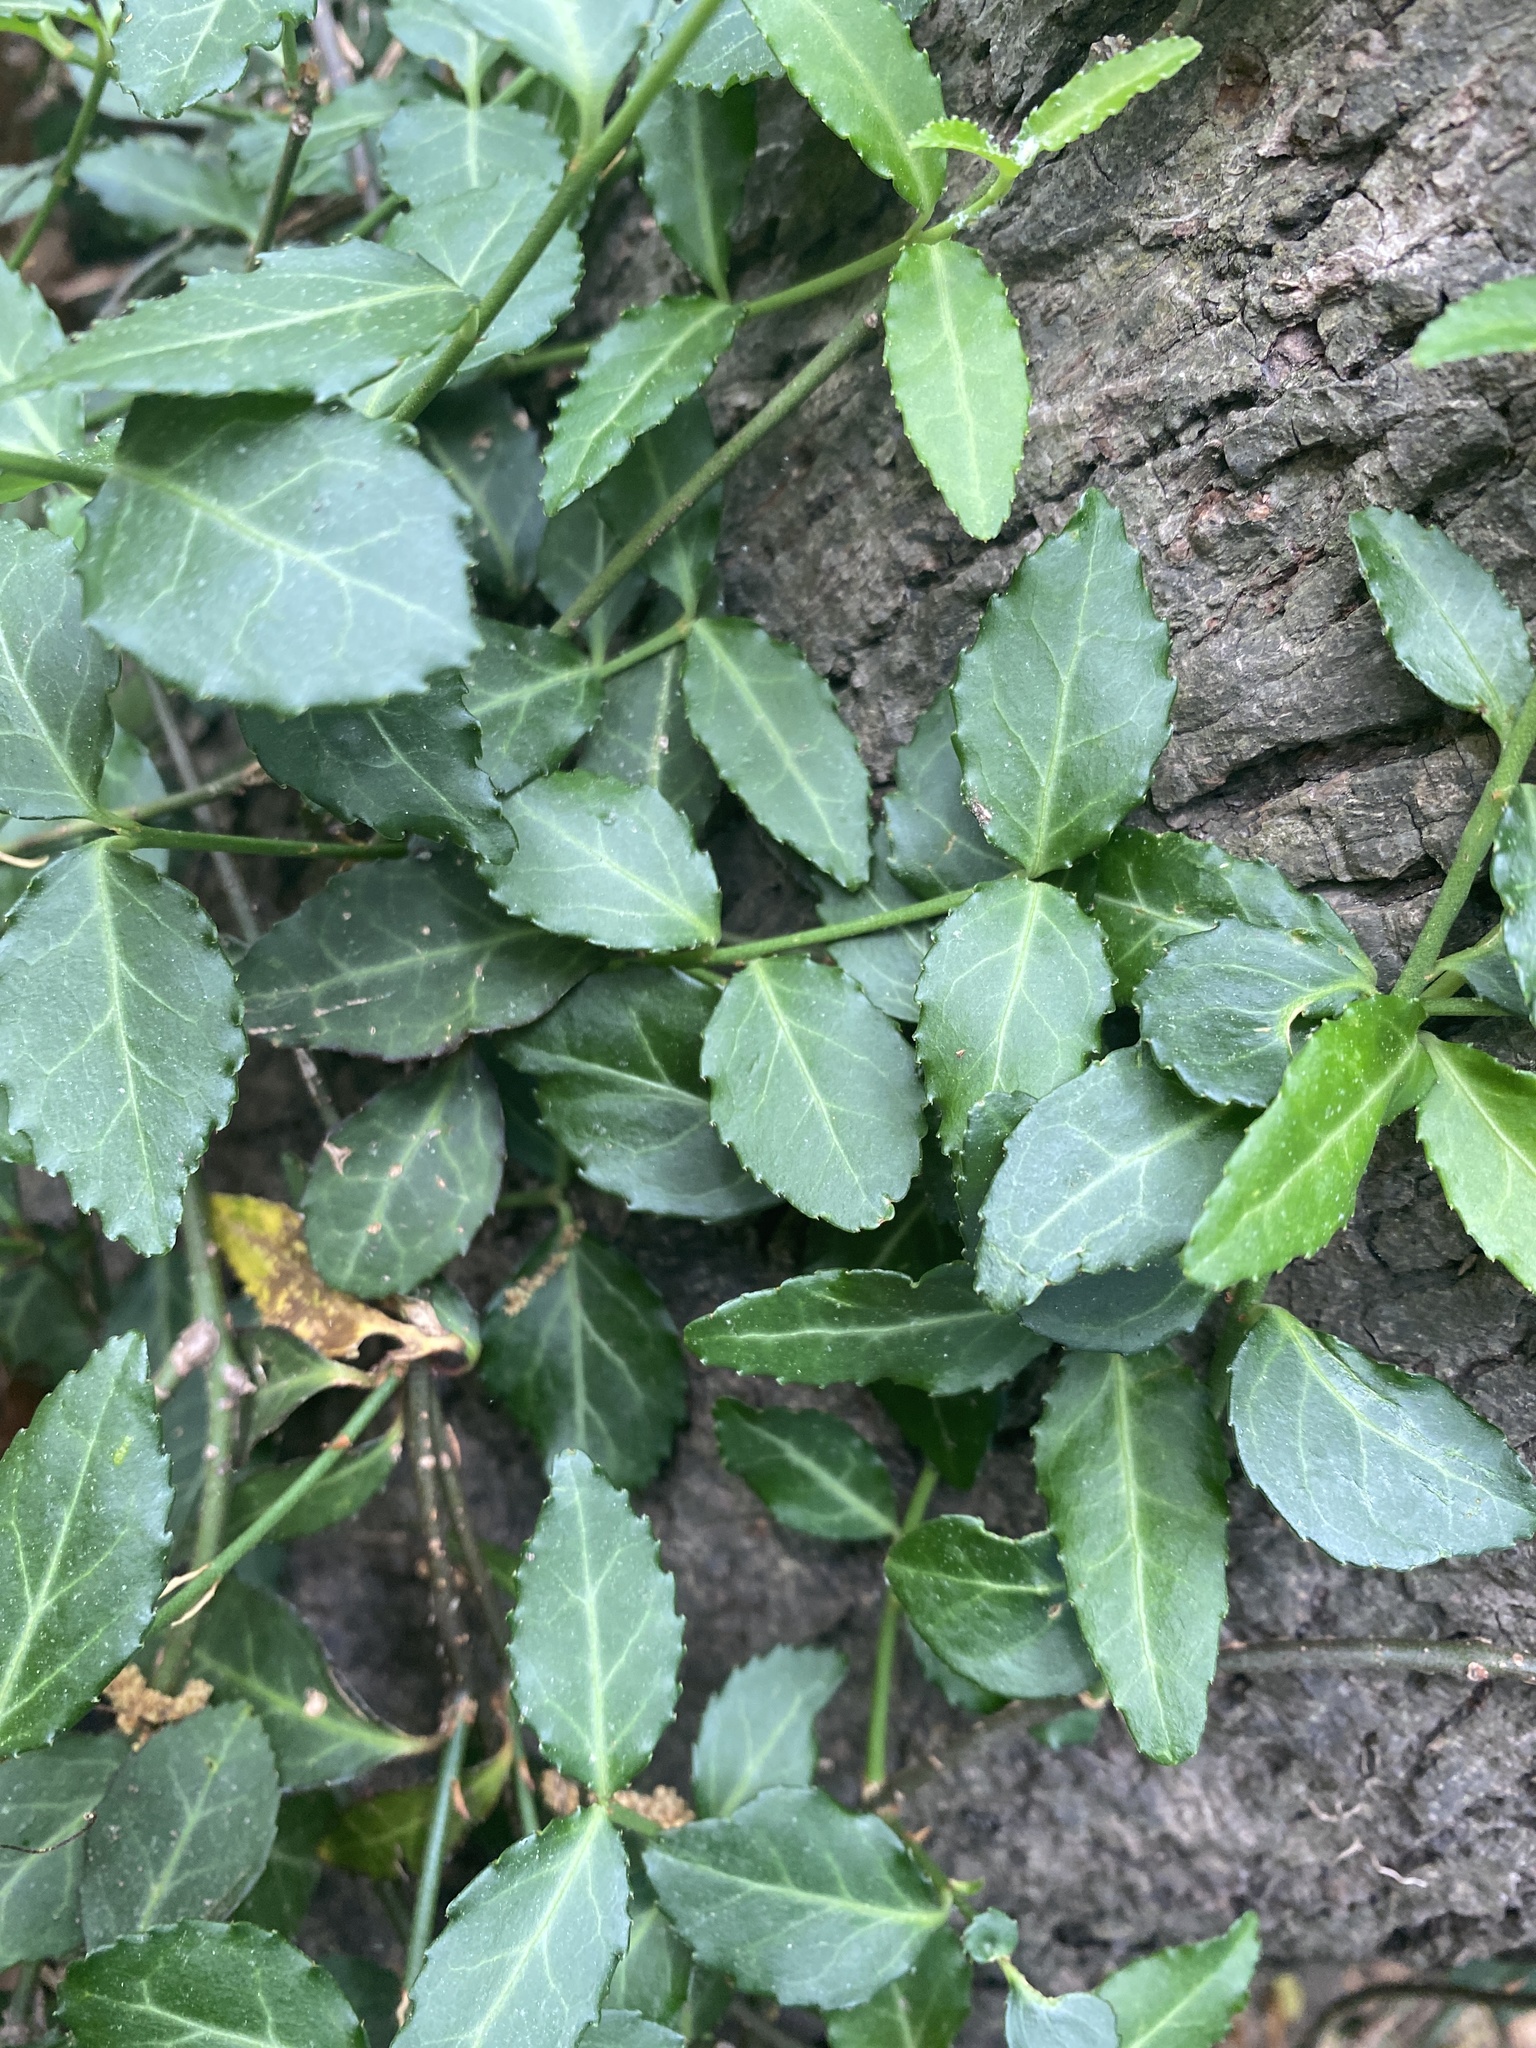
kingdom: Plantae
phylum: Tracheophyta
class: Magnoliopsida
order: Celastrales
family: Celastraceae
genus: Euonymus
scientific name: Euonymus fortunei
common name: Climbing euonymus
